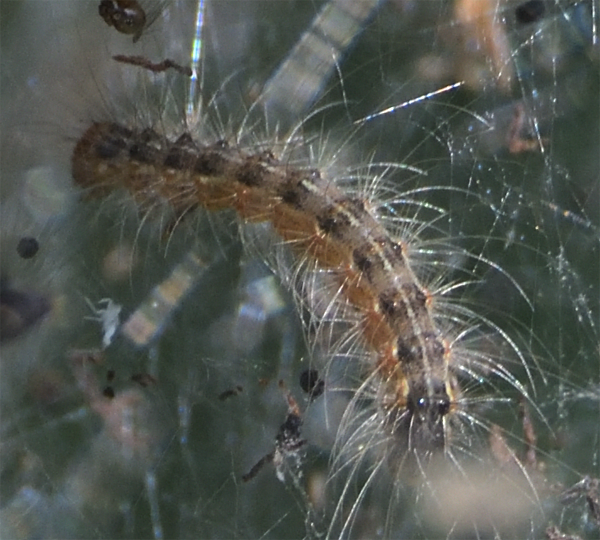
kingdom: Animalia
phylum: Arthropoda
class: Insecta
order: Lepidoptera
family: Erebidae
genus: Hyphantria
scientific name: Hyphantria cunea
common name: American white moth
